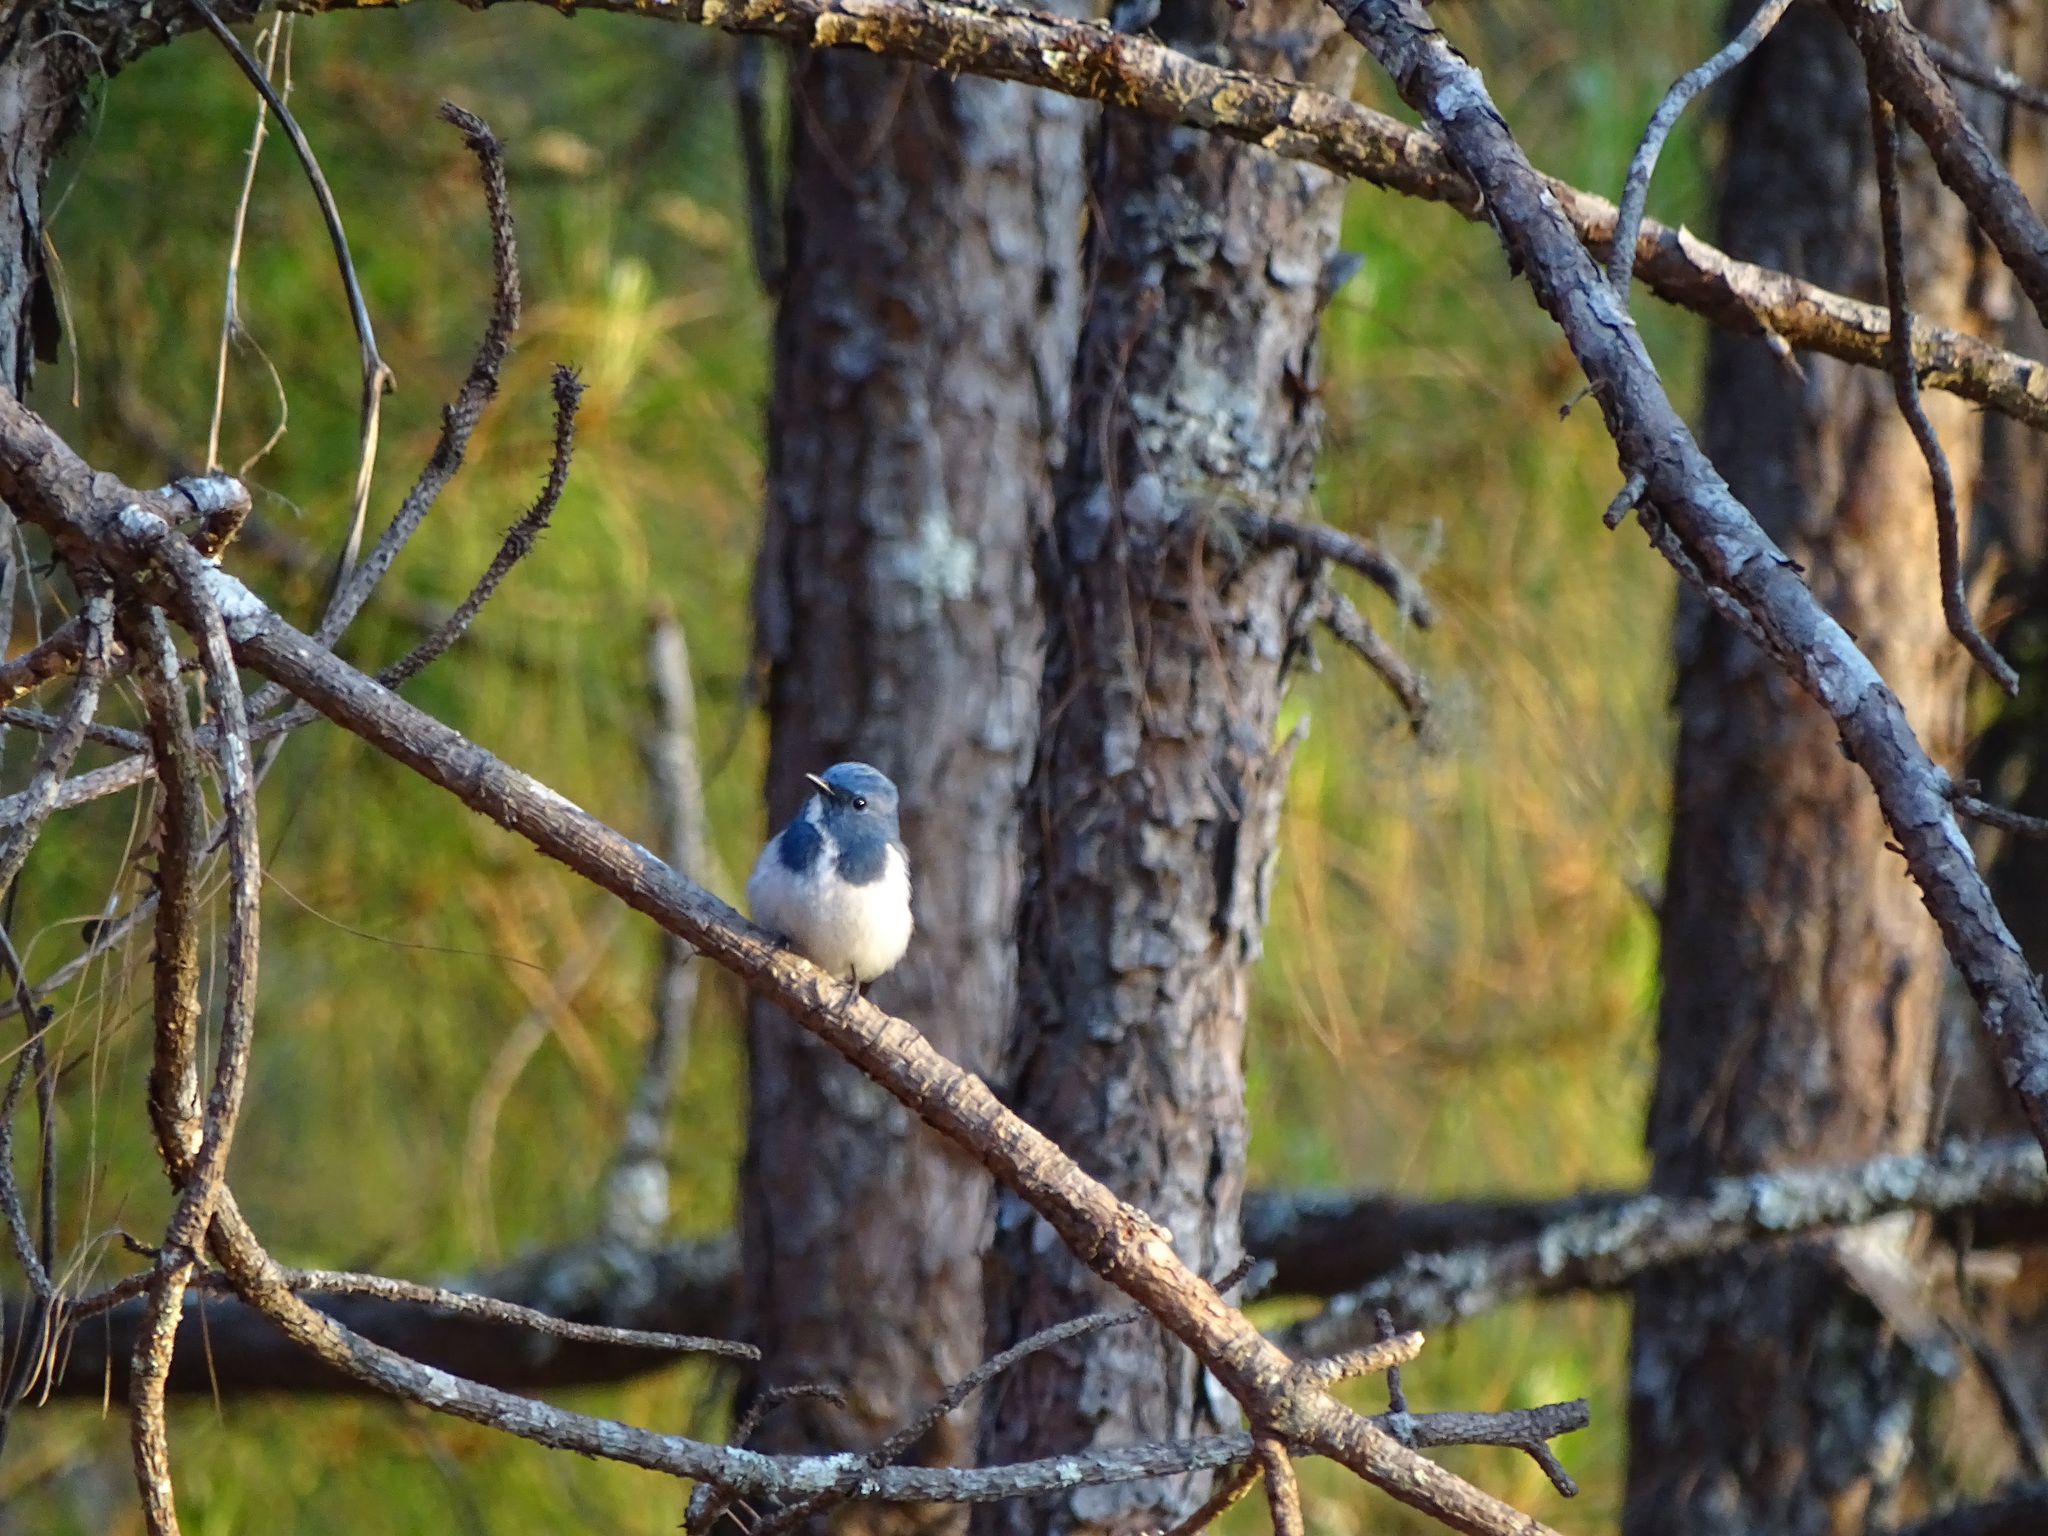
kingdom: Animalia
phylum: Chordata
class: Aves
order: Passeriformes
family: Muscicapidae
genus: Ficedula
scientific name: Ficedula superciliaris
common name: Ultramarine flycatcher
